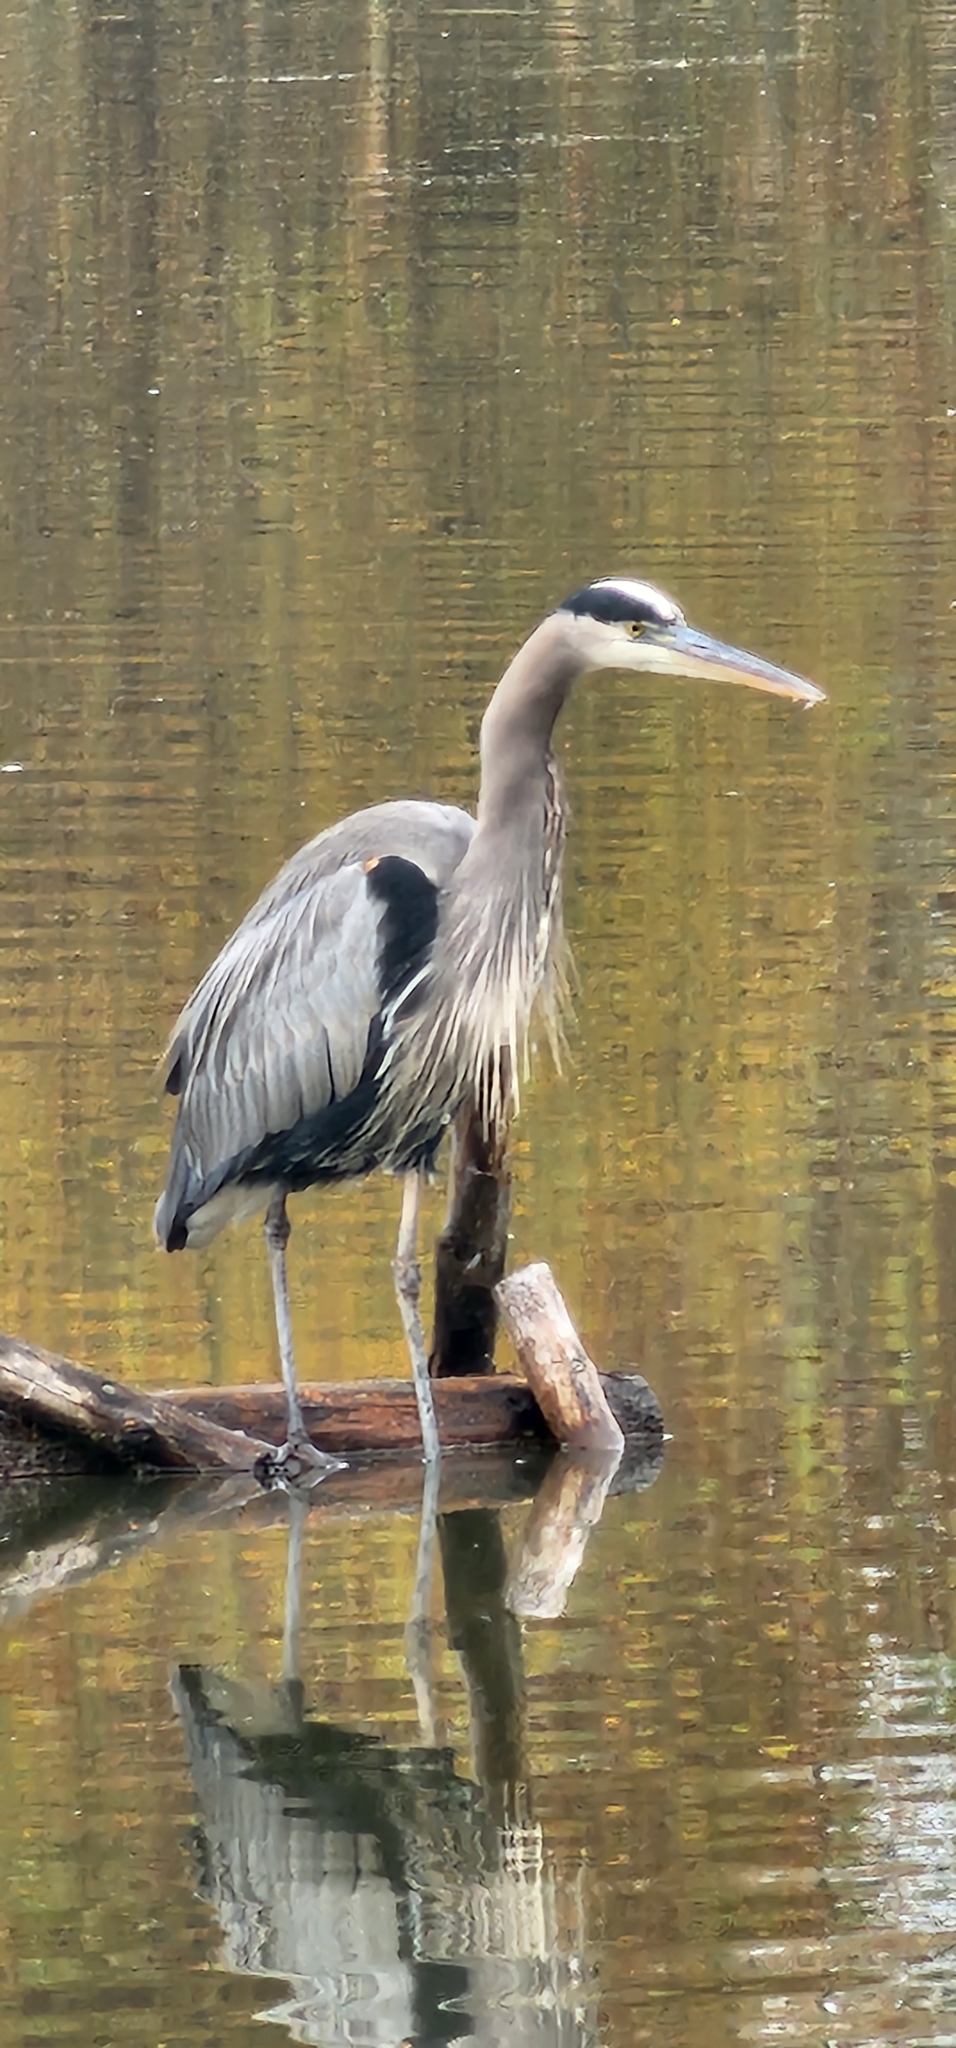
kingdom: Animalia
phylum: Chordata
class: Aves
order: Pelecaniformes
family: Ardeidae
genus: Ardea
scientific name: Ardea herodias
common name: Great blue heron
